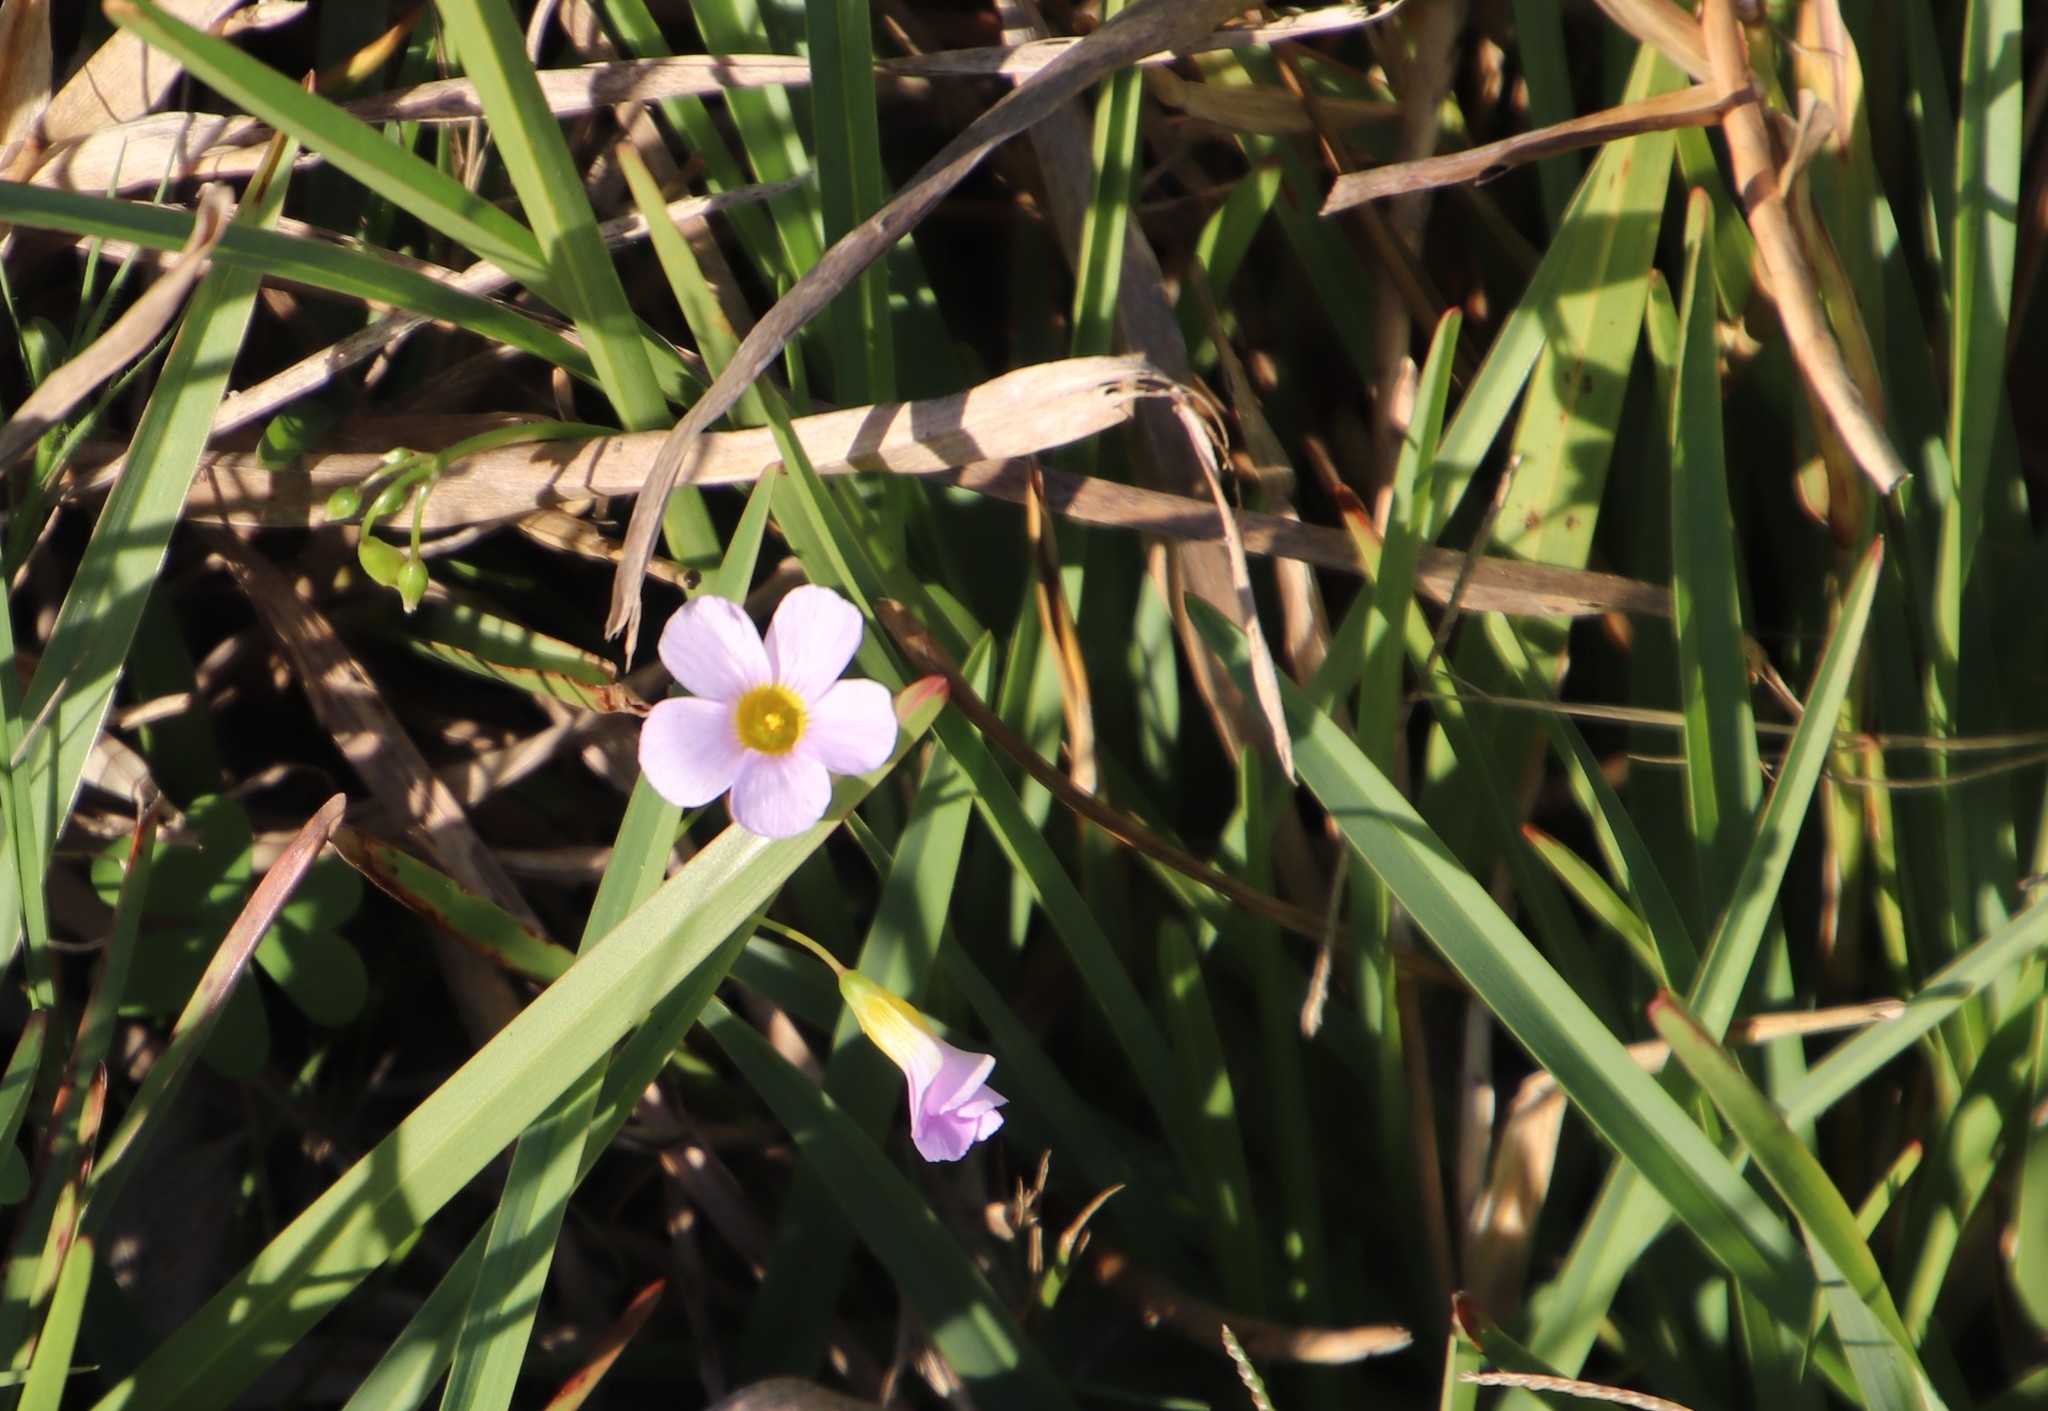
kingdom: Plantae
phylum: Tracheophyta
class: Magnoliopsida
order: Oxalidales
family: Oxalidaceae
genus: Oxalis
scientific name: Oxalis caprina
